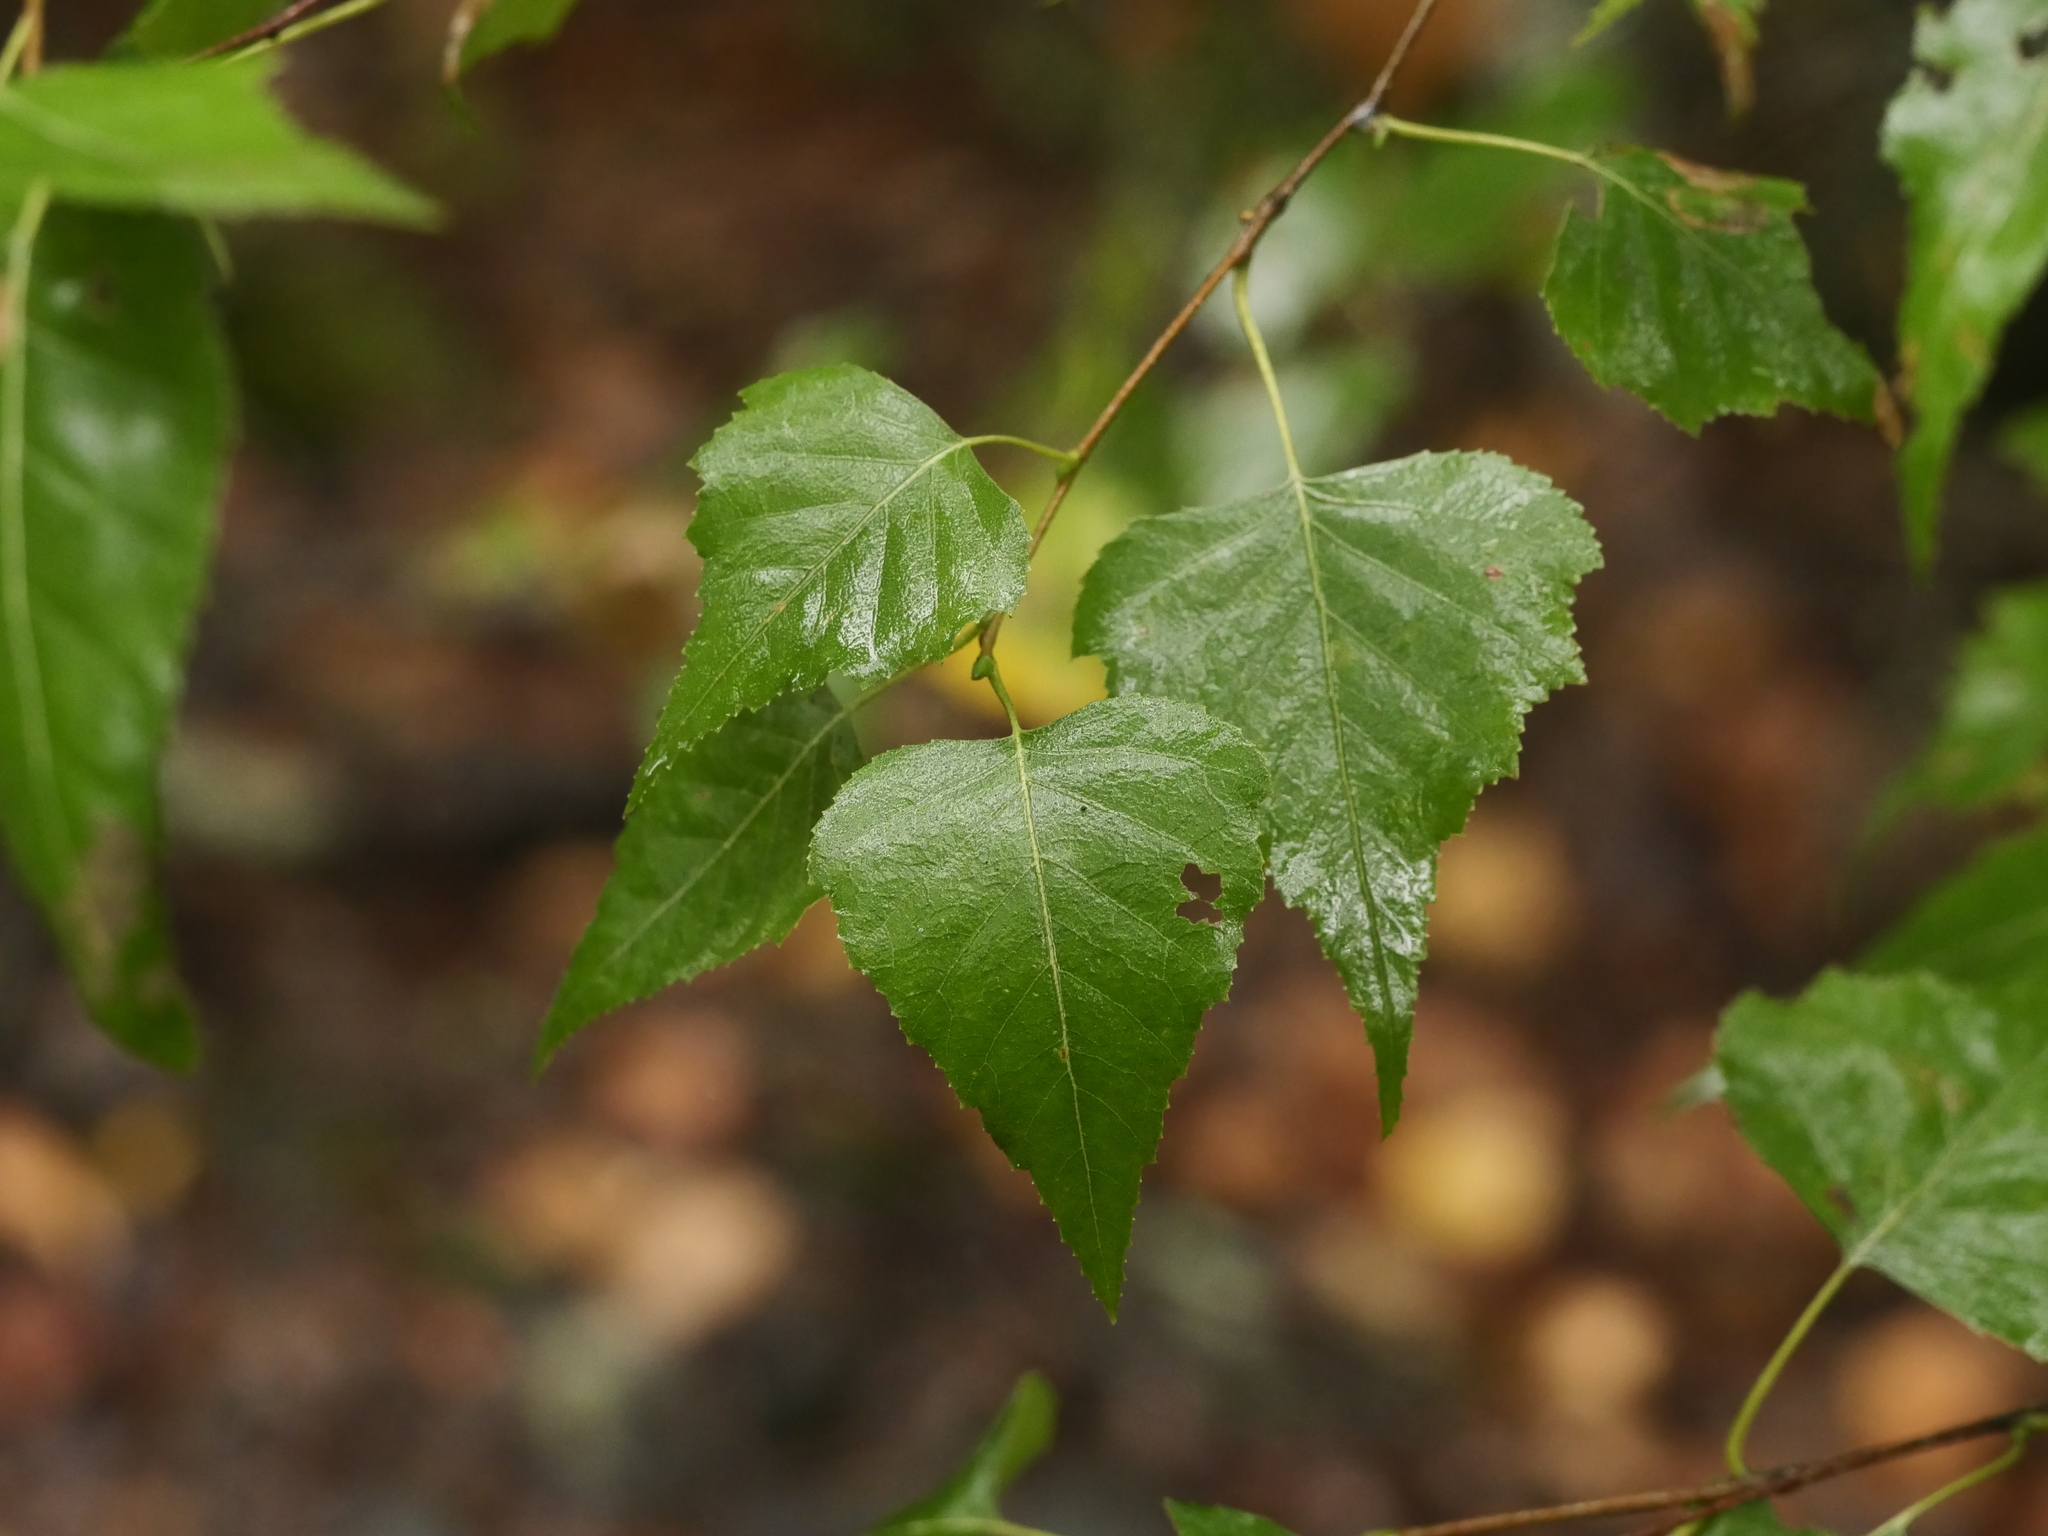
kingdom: Plantae
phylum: Tracheophyta
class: Magnoliopsida
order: Fagales
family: Betulaceae
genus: Betula
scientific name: Betula populifolia
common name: Fire birch
